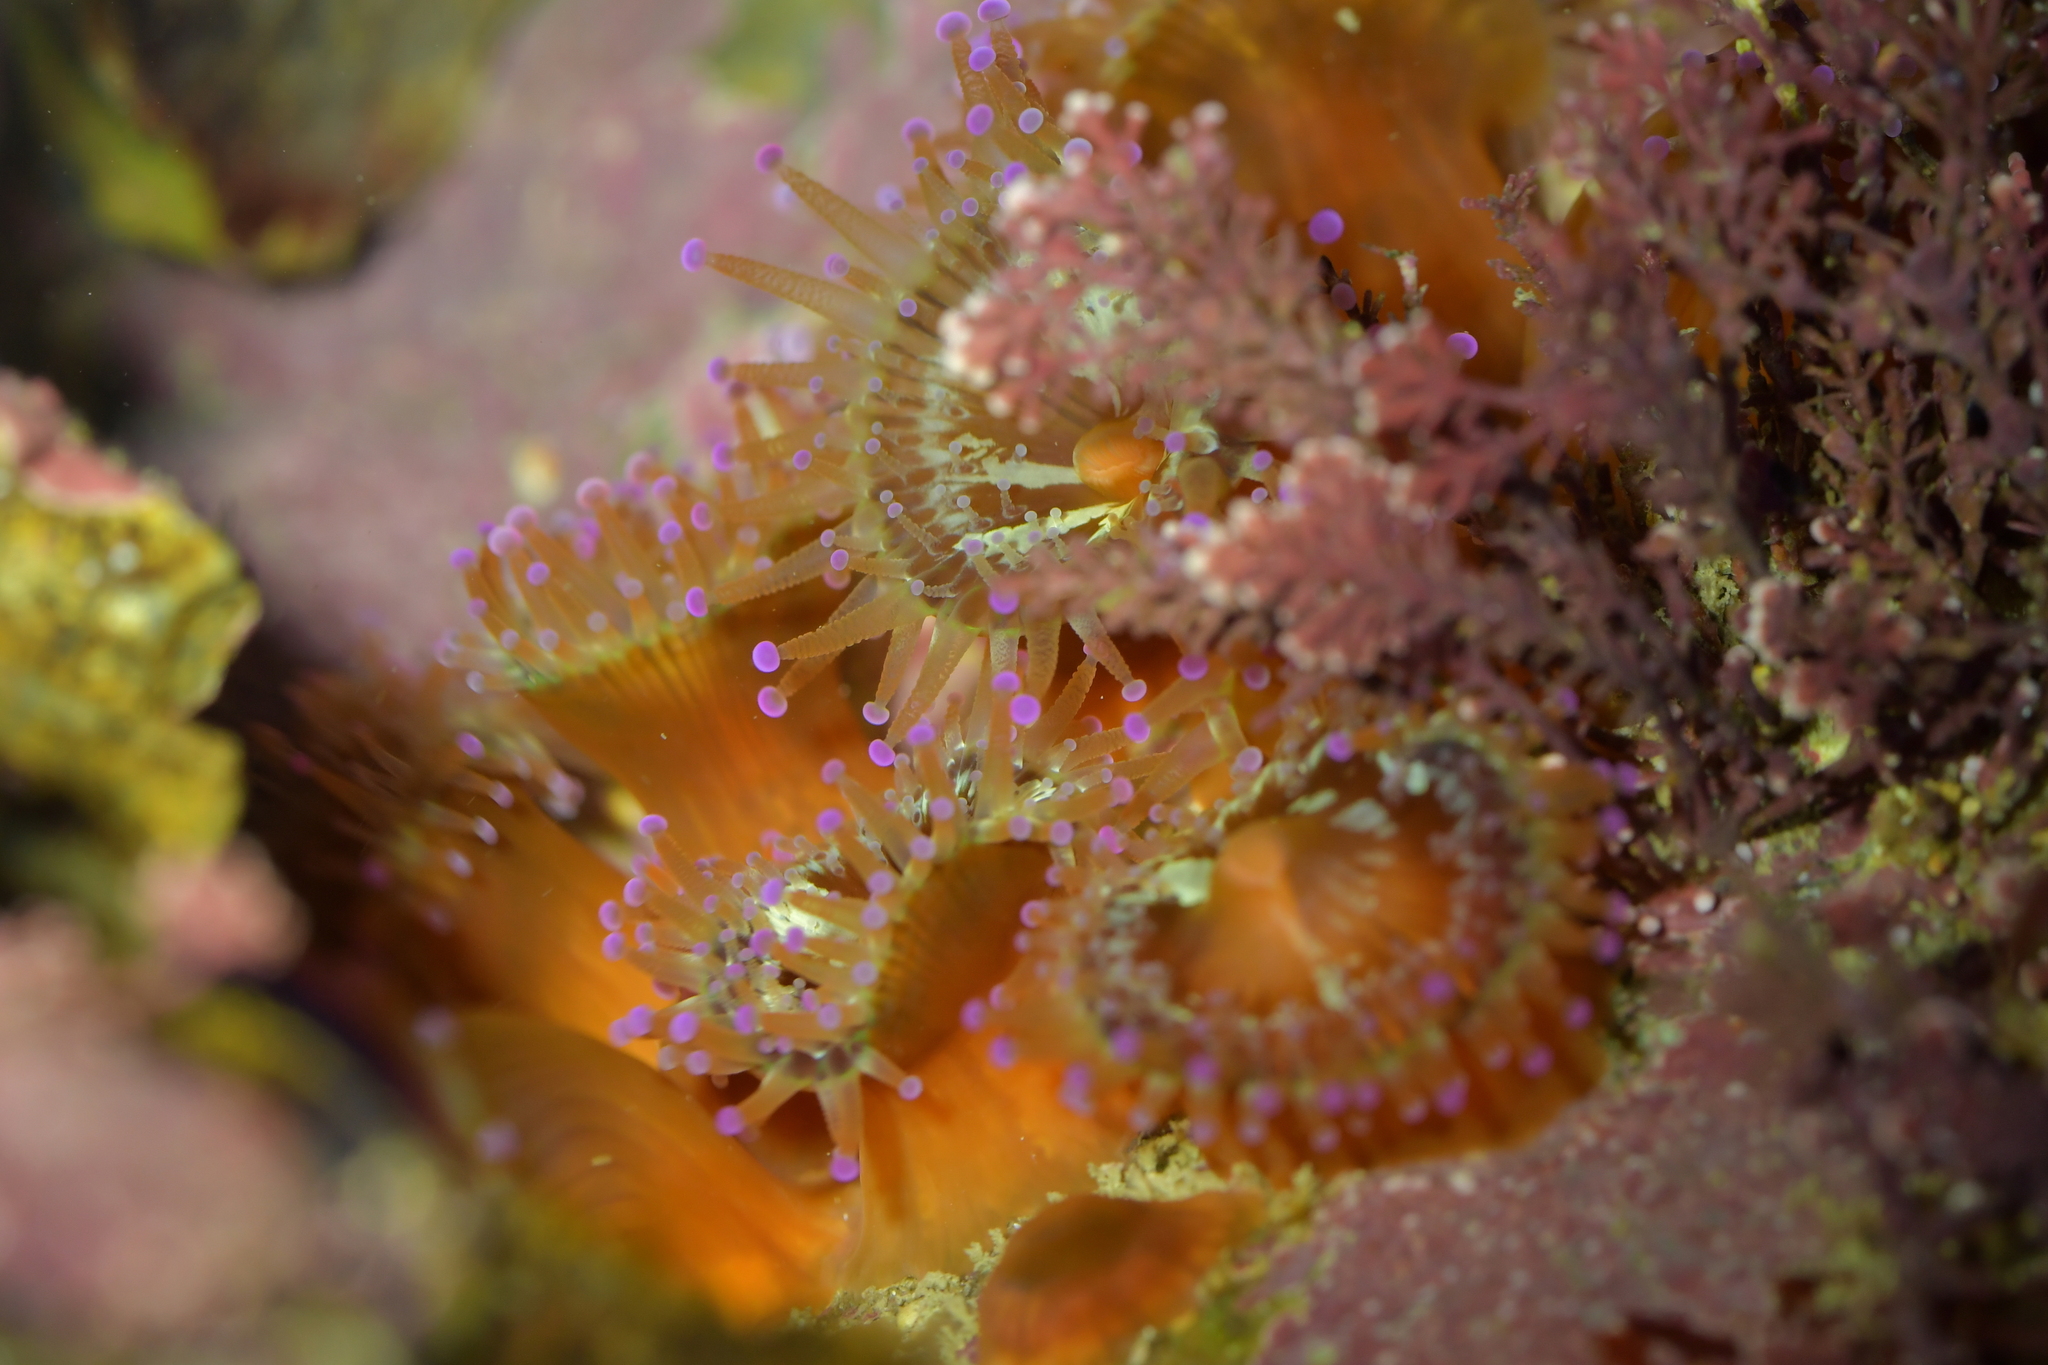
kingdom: Animalia
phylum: Cnidaria
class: Anthozoa
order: Corallimorpharia
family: Corallimorphidae
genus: Corynactis
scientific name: Corynactis australis
